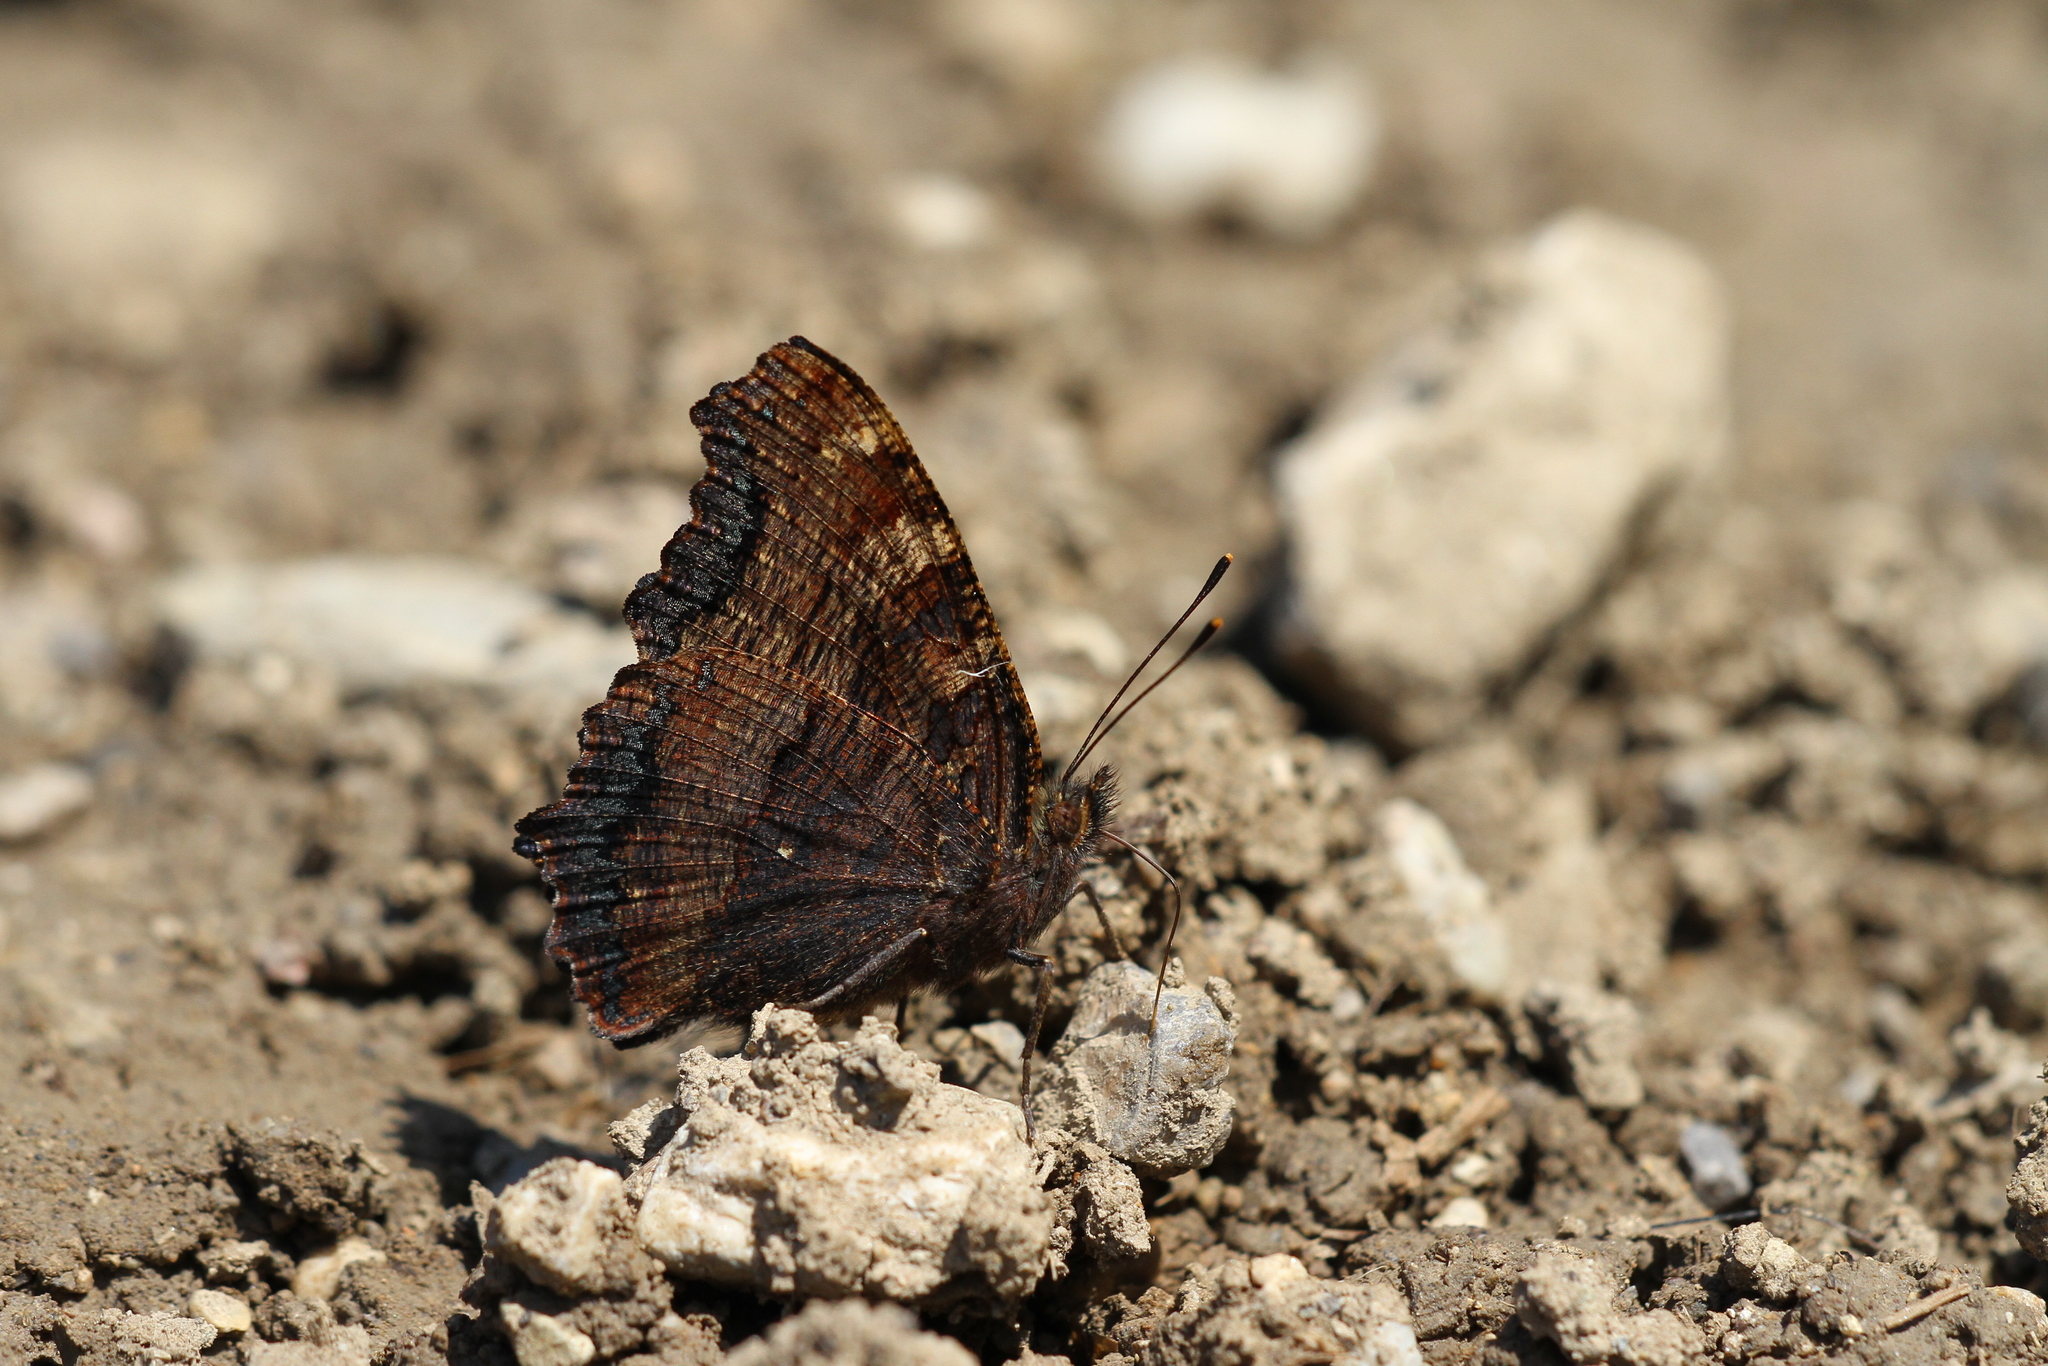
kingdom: Animalia
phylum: Arthropoda
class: Insecta
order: Lepidoptera
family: Nymphalidae
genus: Nymphalis
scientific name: Nymphalis polychloros
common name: Large tortoiseshell
